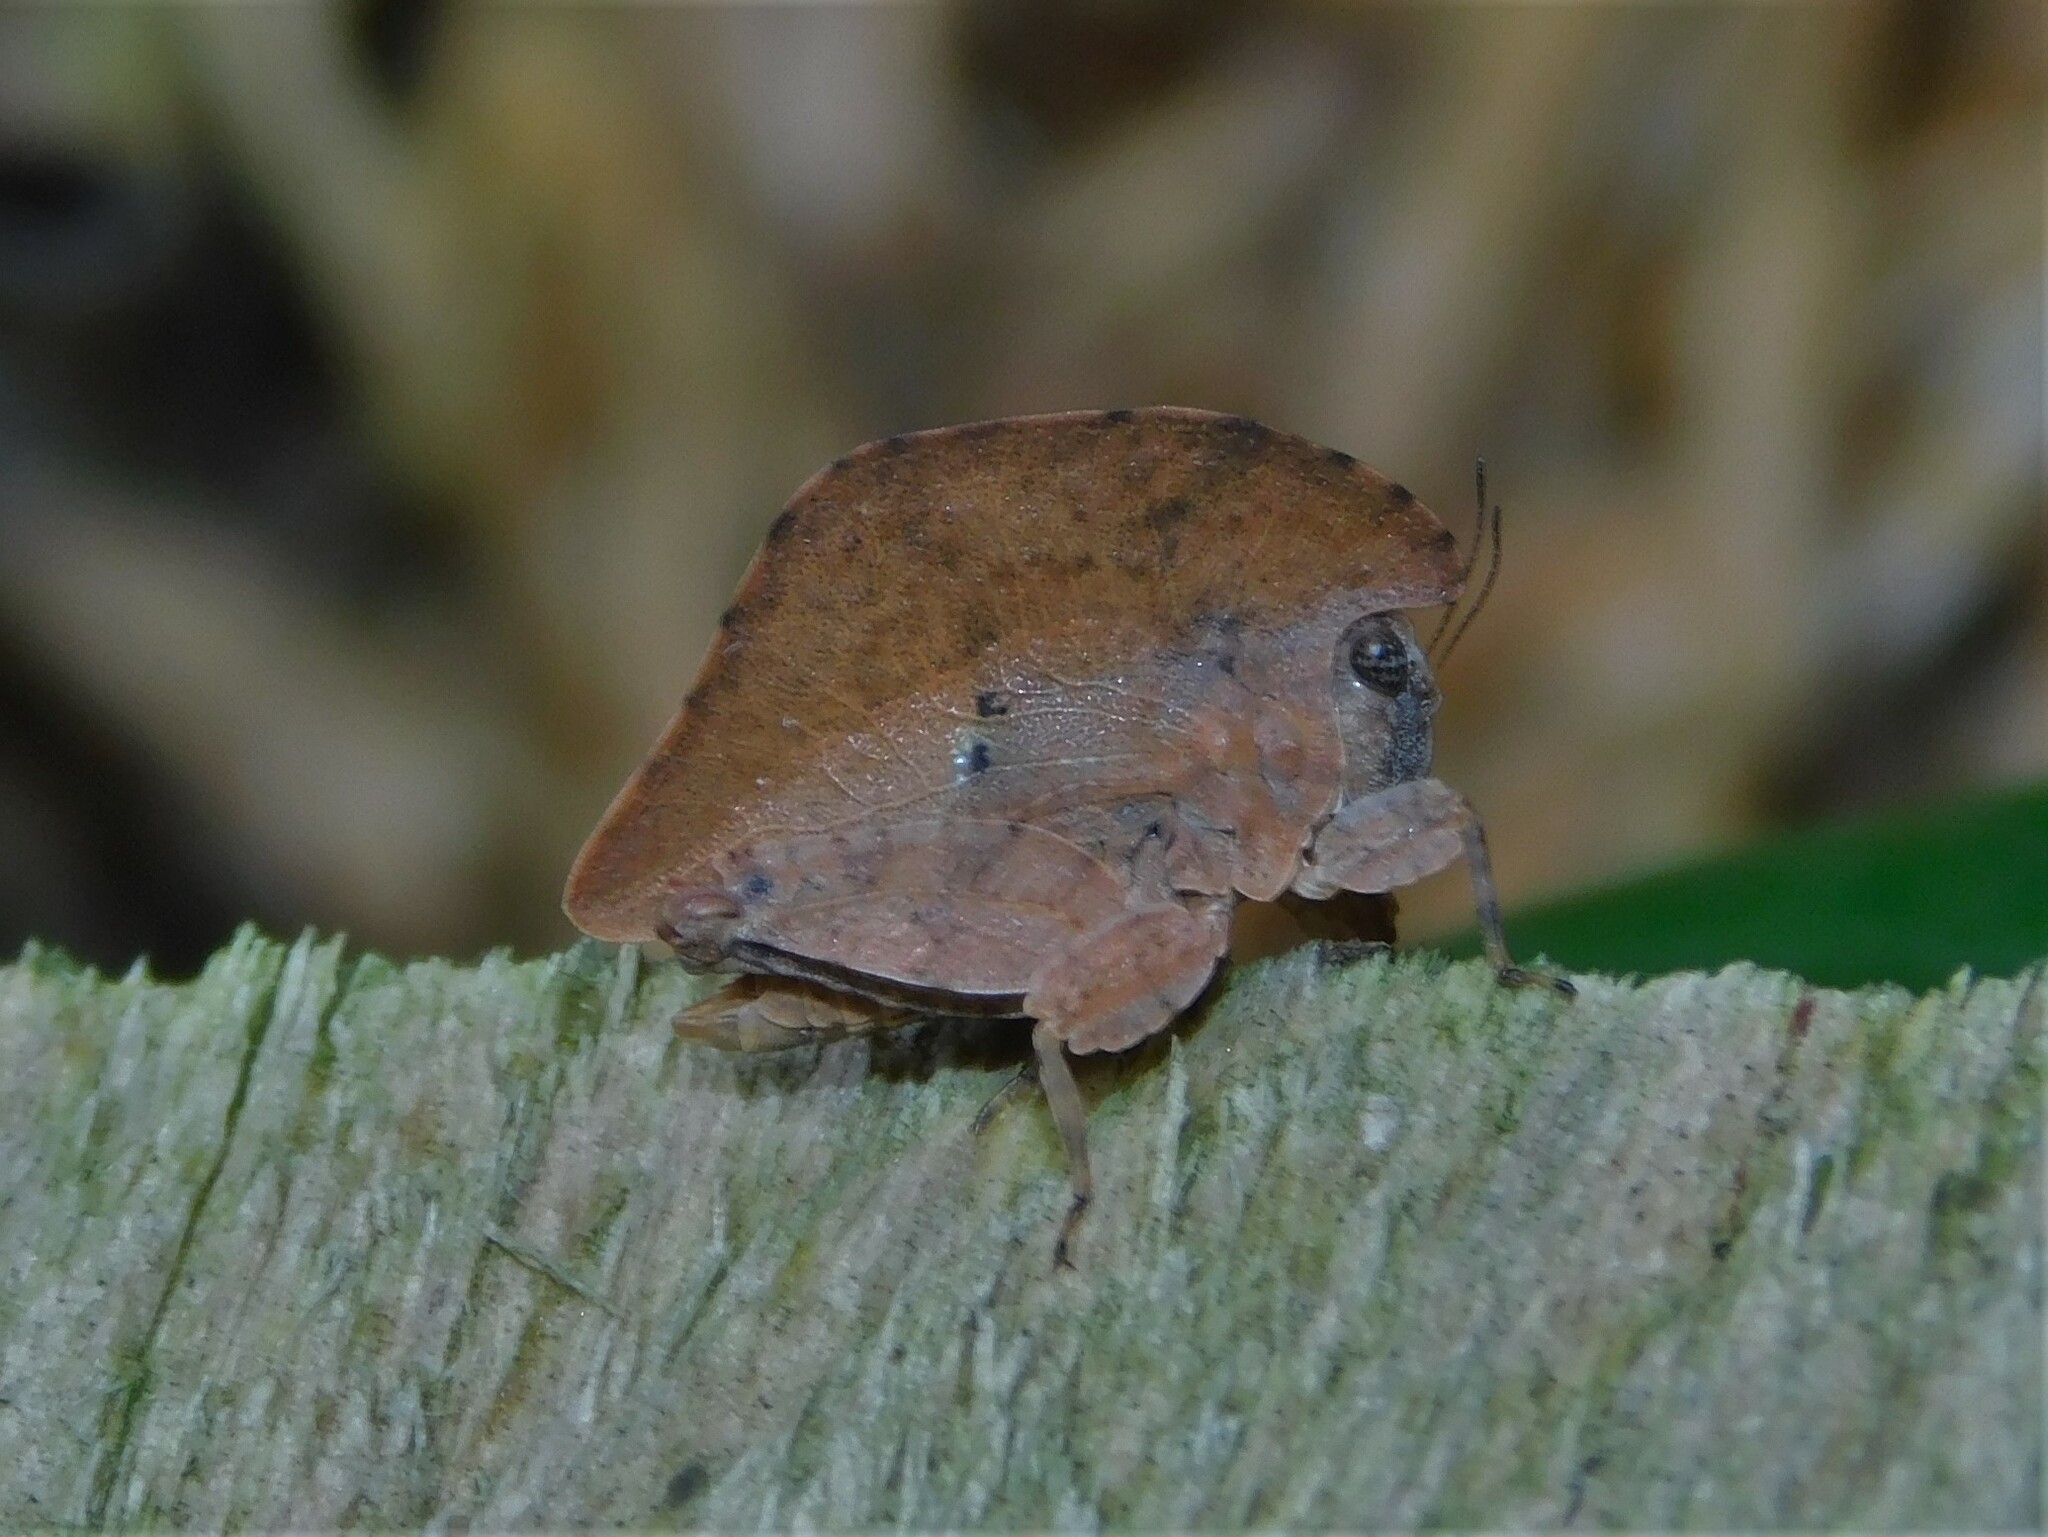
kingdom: Animalia
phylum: Arthropoda
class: Insecta
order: Orthoptera
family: Tetrigidae
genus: Trypophyllum
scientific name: Trypophyllum glabrifrons
